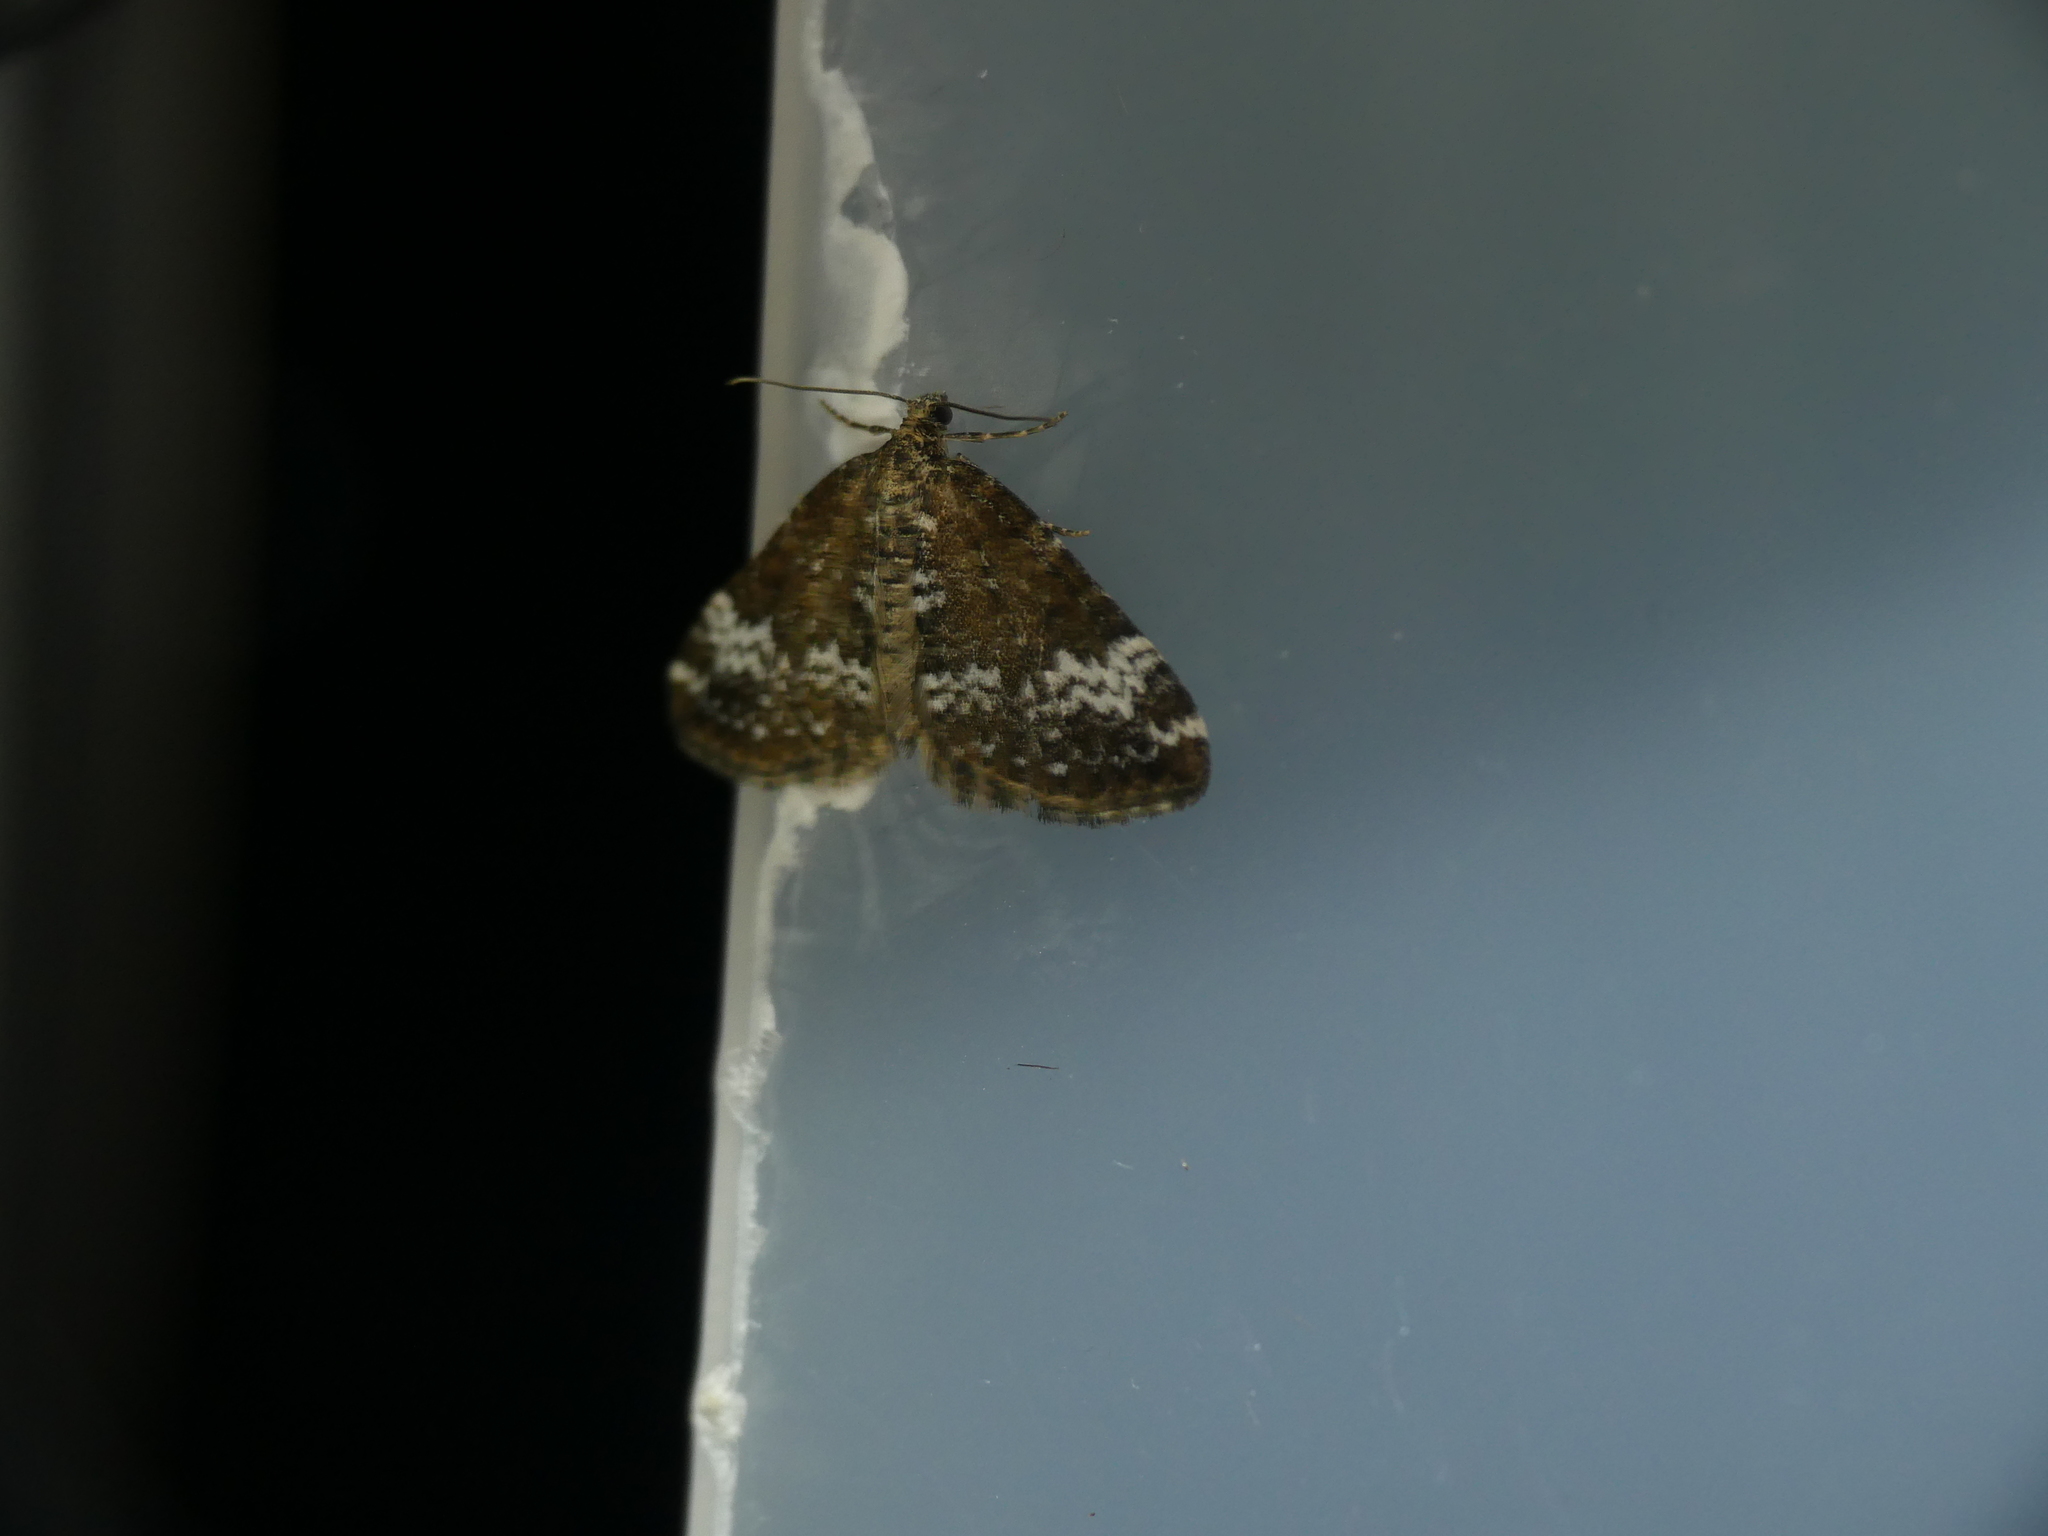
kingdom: Animalia
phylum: Arthropoda
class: Insecta
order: Lepidoptera
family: Geometridae
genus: Perizoma
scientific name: Perizoma alchemillata
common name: Small rivulet
